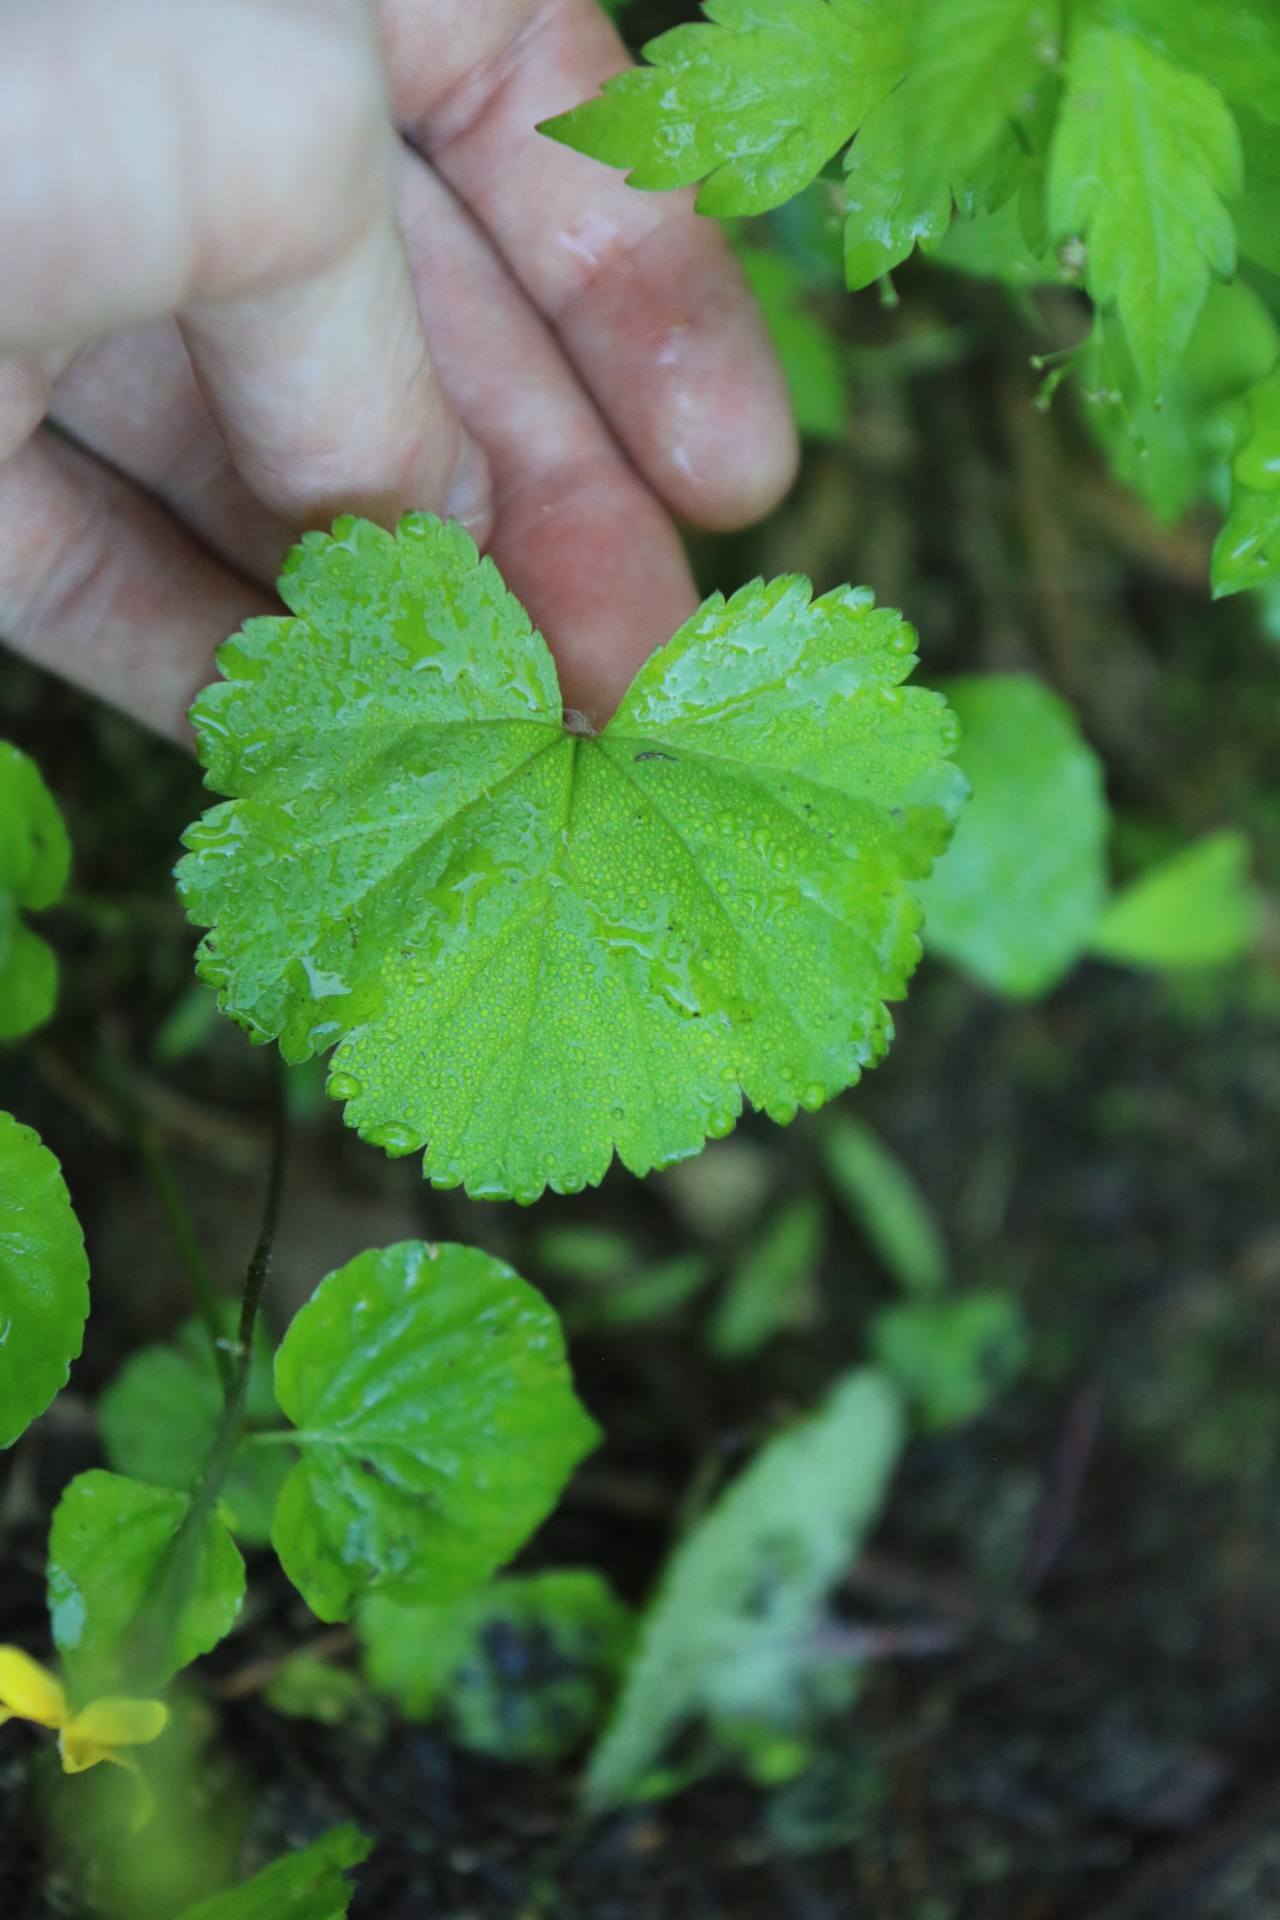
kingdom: Plantae
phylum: Tracheophyta
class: Magnoliopsida
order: Saxifragales
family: Saxifragaceae
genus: Brewerimitella
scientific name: Brewerimitella breweri
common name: Brewer's bishop's-cap
